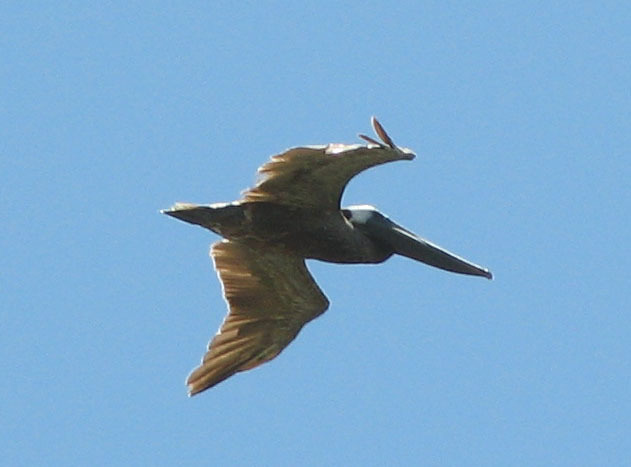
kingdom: Animalia
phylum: Chordata
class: Aves
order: Pelecaniformes
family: Pelecanidae
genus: Pelecanus
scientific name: Pelecanus occidentalis
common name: Brown pelican
